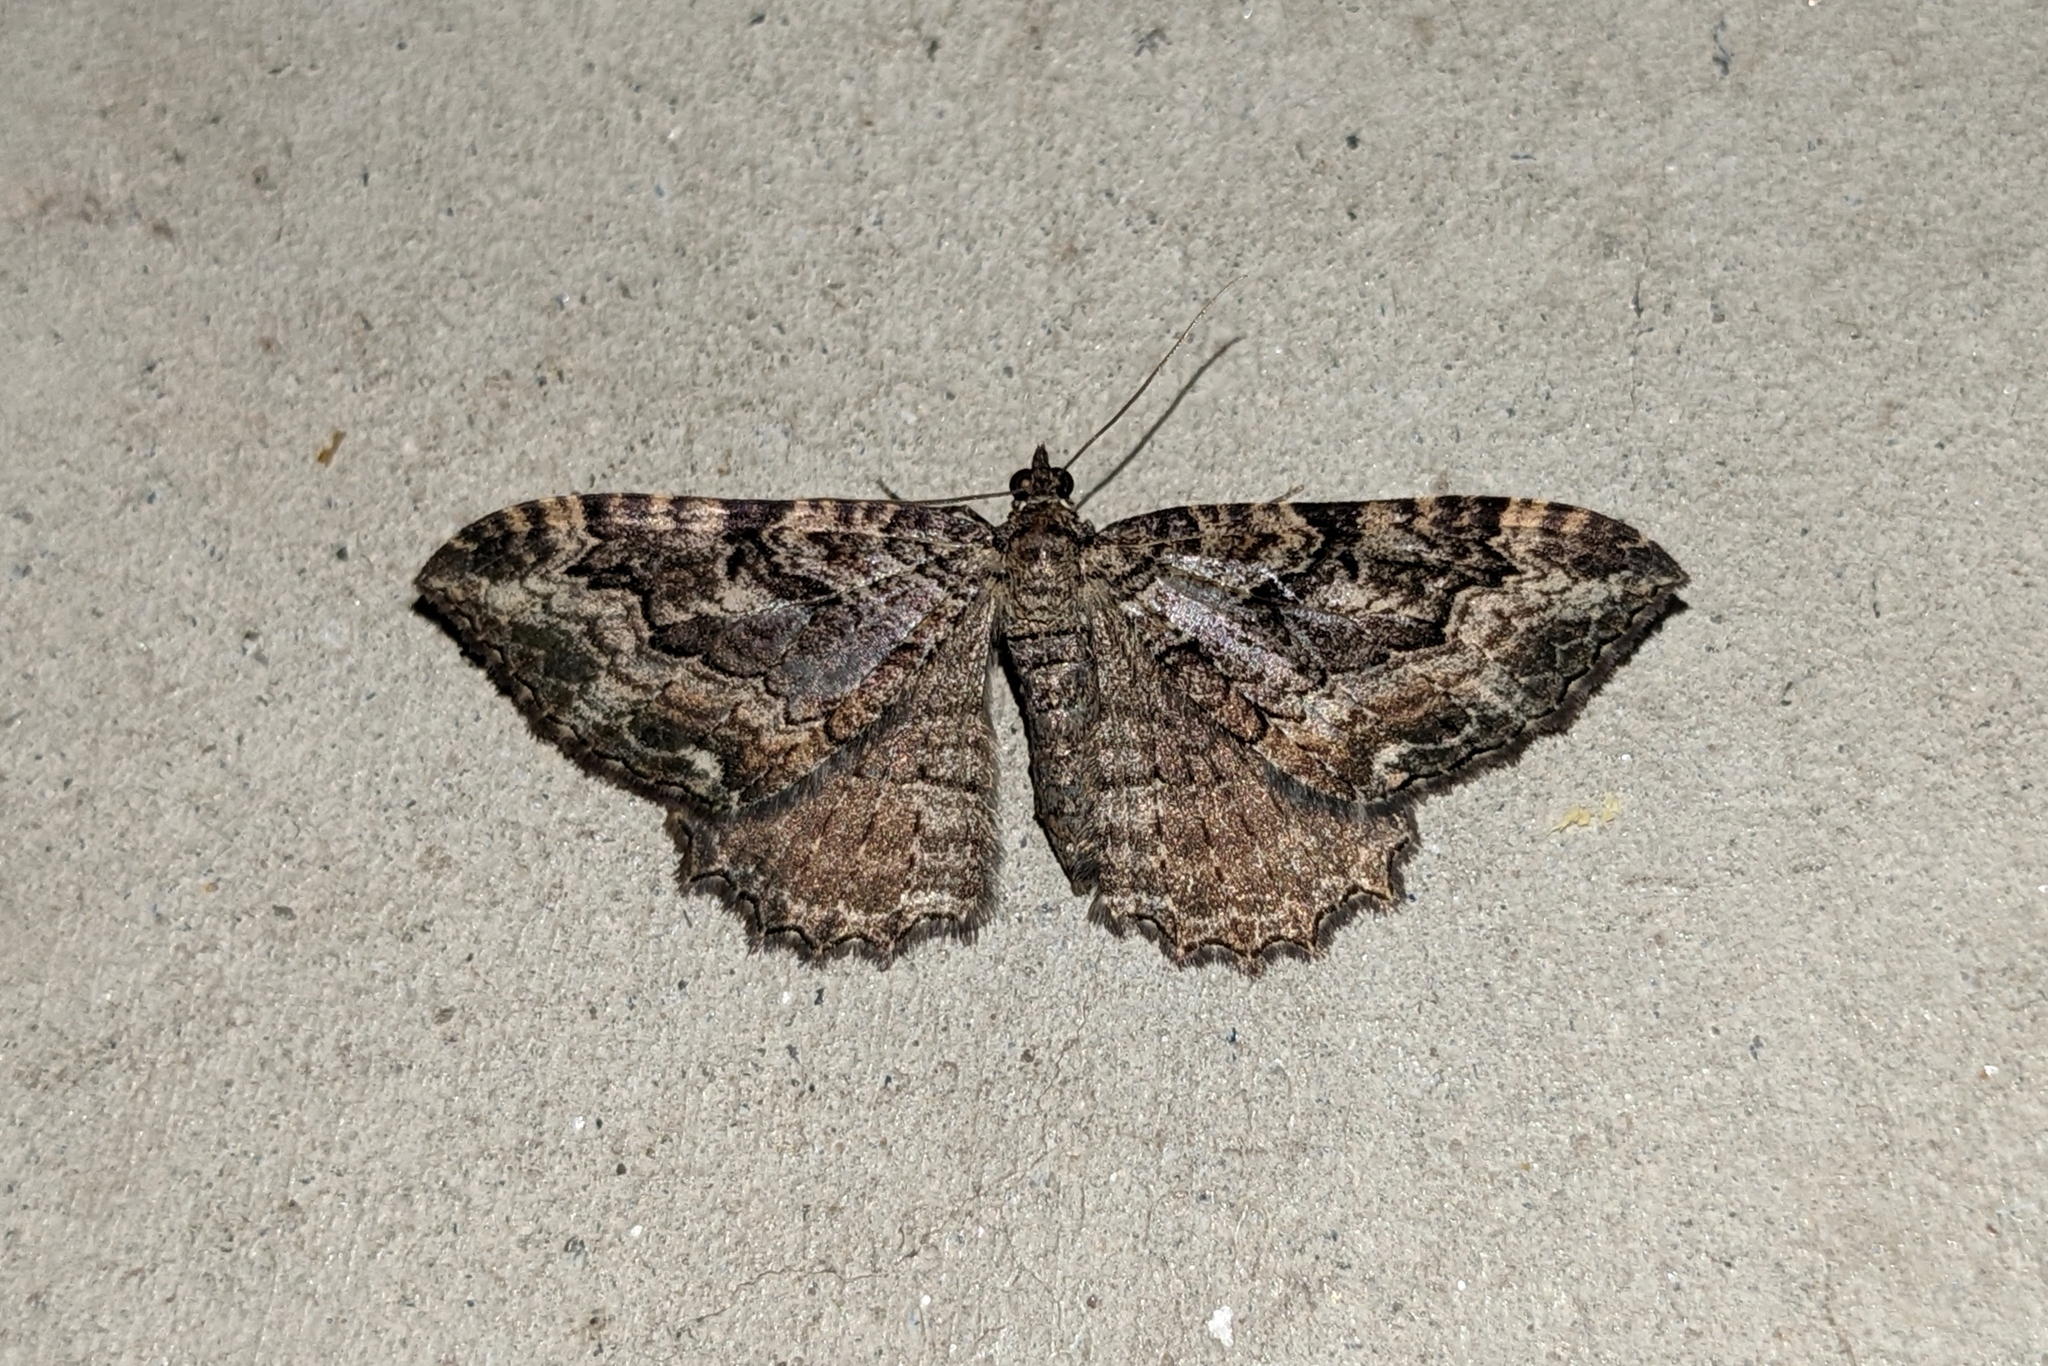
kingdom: Animalia
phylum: Arthropoda
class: Insecta
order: Lepidoptera
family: Geometridae
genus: Rheumaptera
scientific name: Rheumaptera
